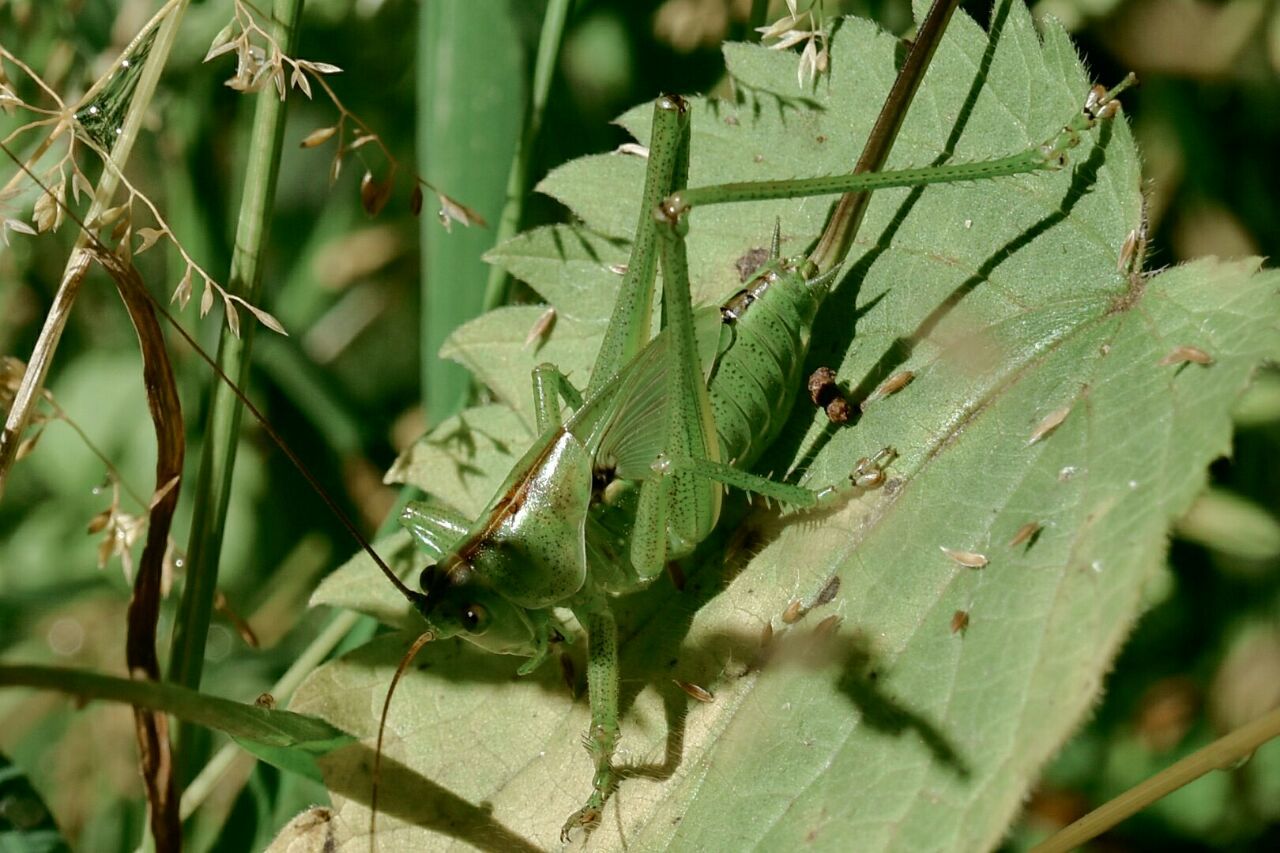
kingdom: Animalia
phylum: Arthropoda
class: Insecta
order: Orthoptera
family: Tettigoniidae
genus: Tettigonia
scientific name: Tettigonia viridissima
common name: Great green bush-cricket
